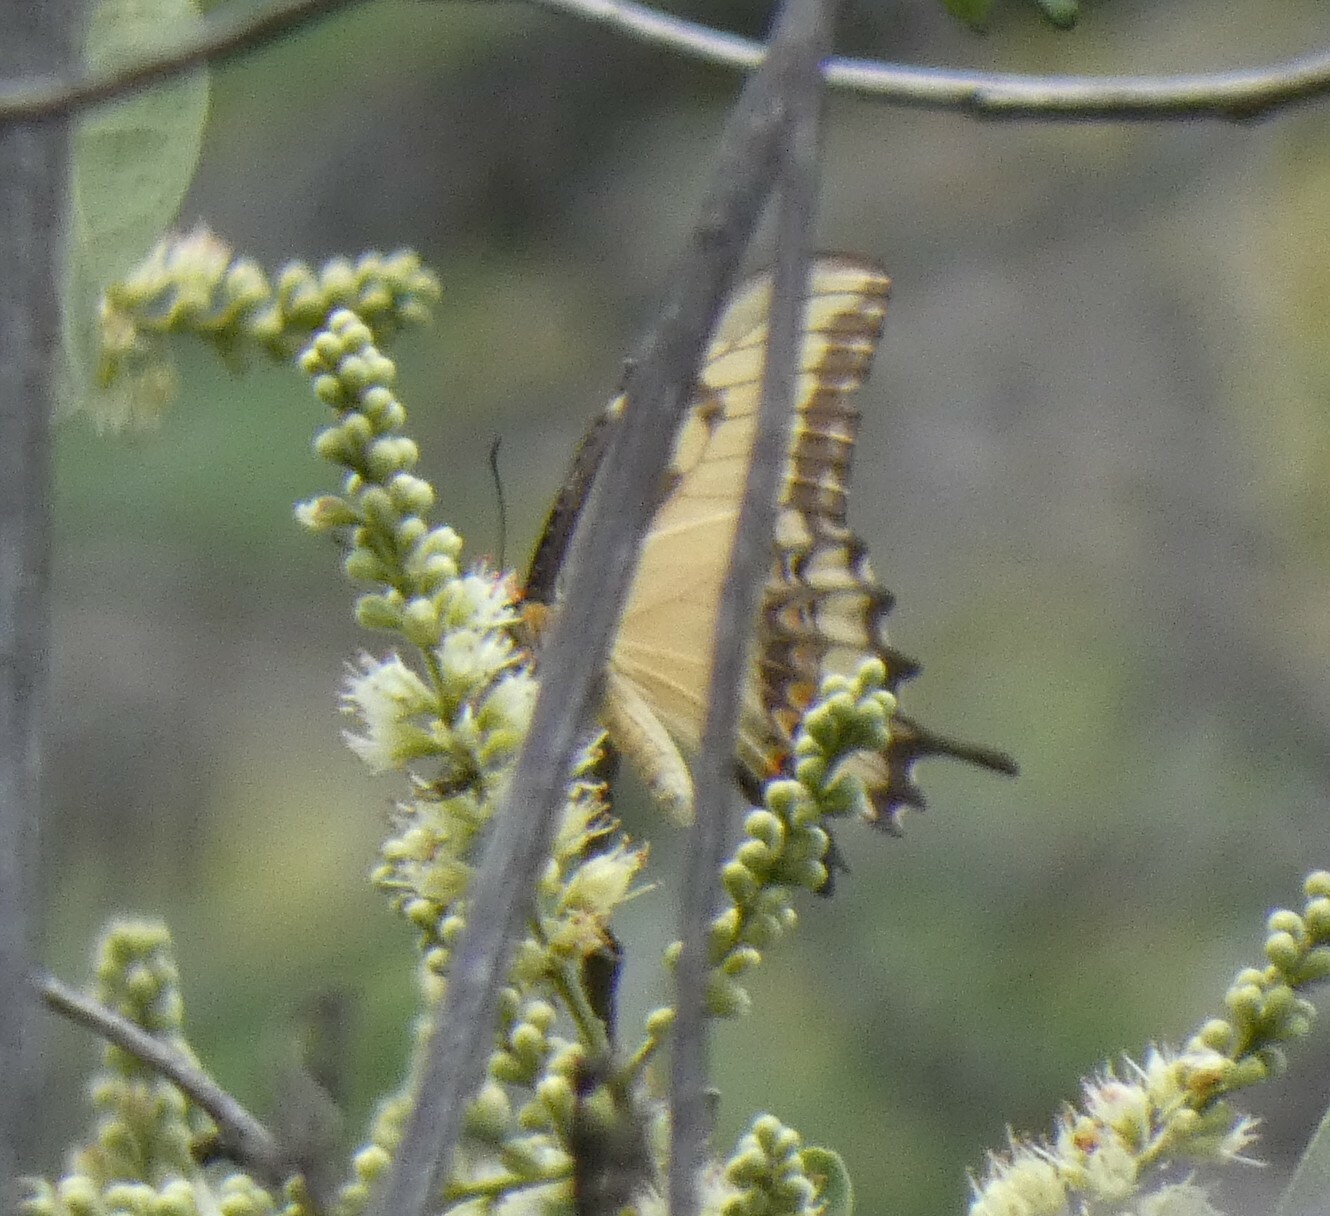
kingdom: Animalia
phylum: Arthropoda
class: Insecta
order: Lepidoptera
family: Papilionidae
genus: Papilio
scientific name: Papilio astyalus
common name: Astyalus swallowtail
